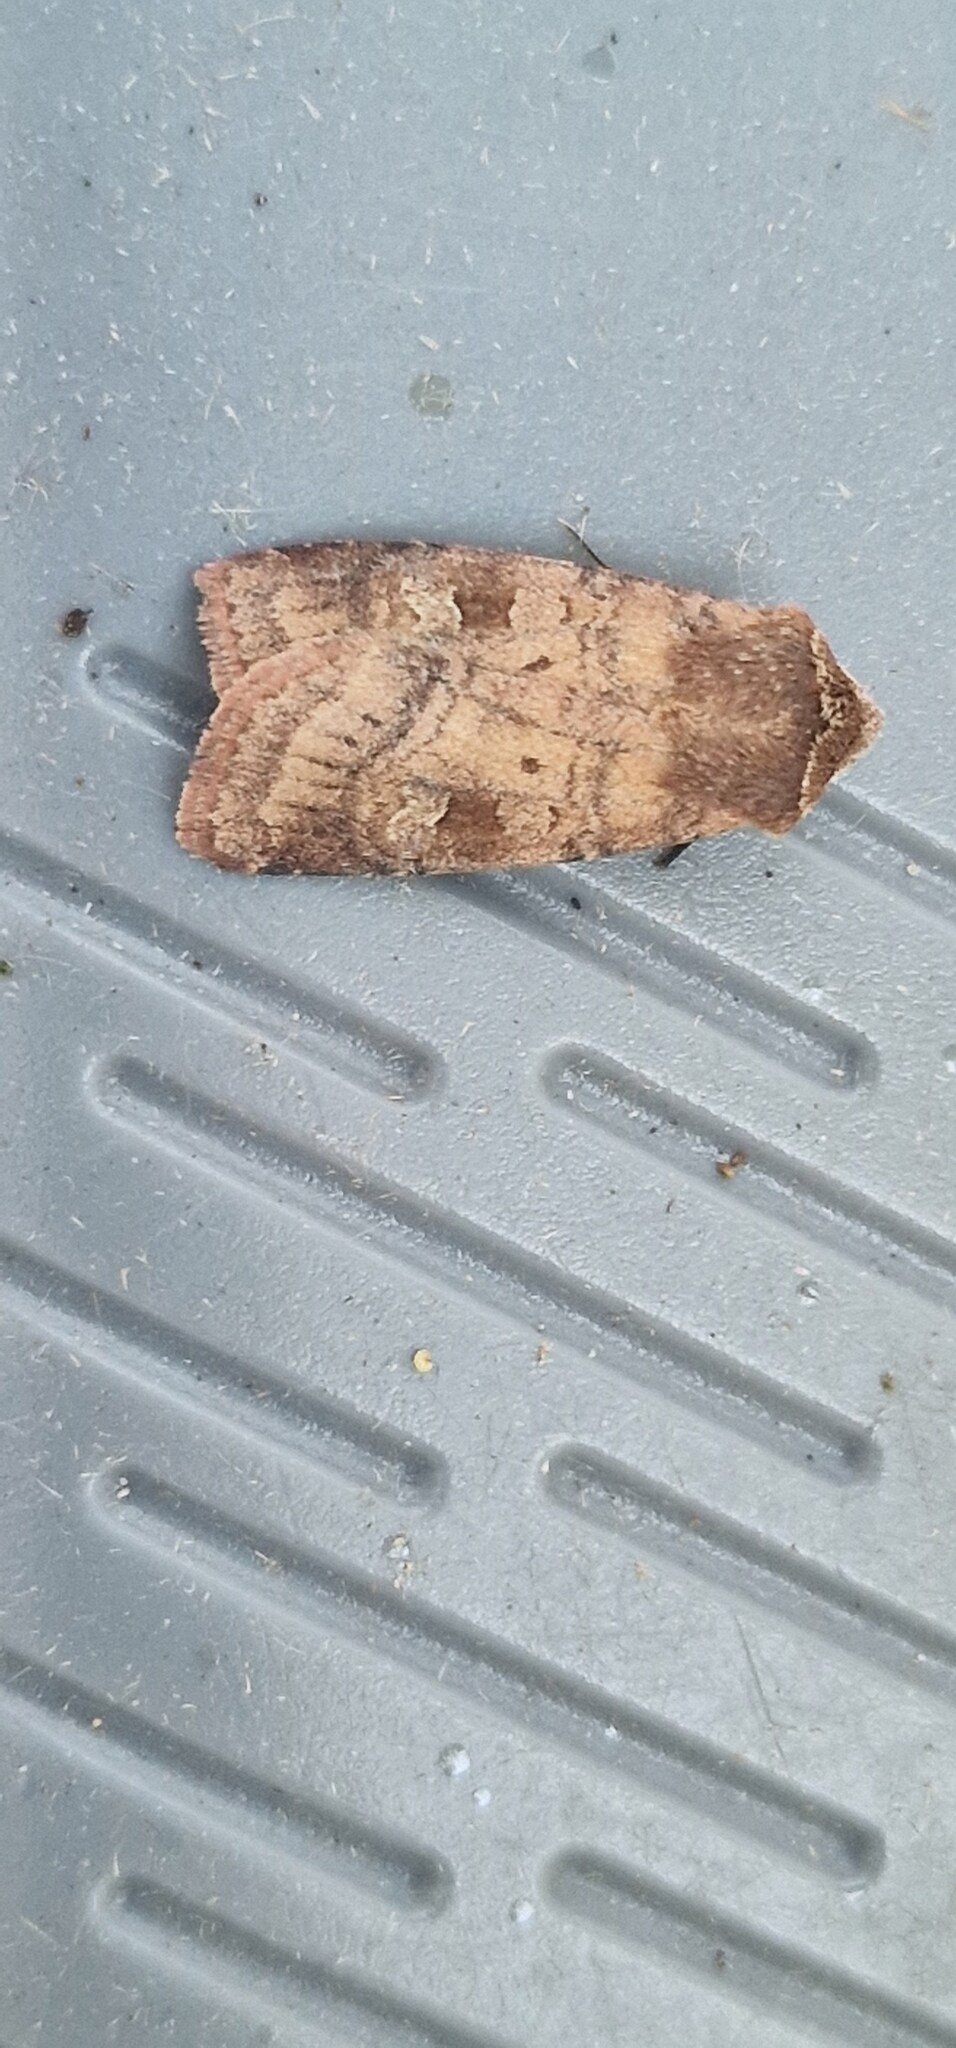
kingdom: Animalia
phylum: Arthropoda
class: Insecta
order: Lepidoptera
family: Noctuidae
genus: Diarsia
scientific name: Diarsia rubi
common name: Small square-spot
